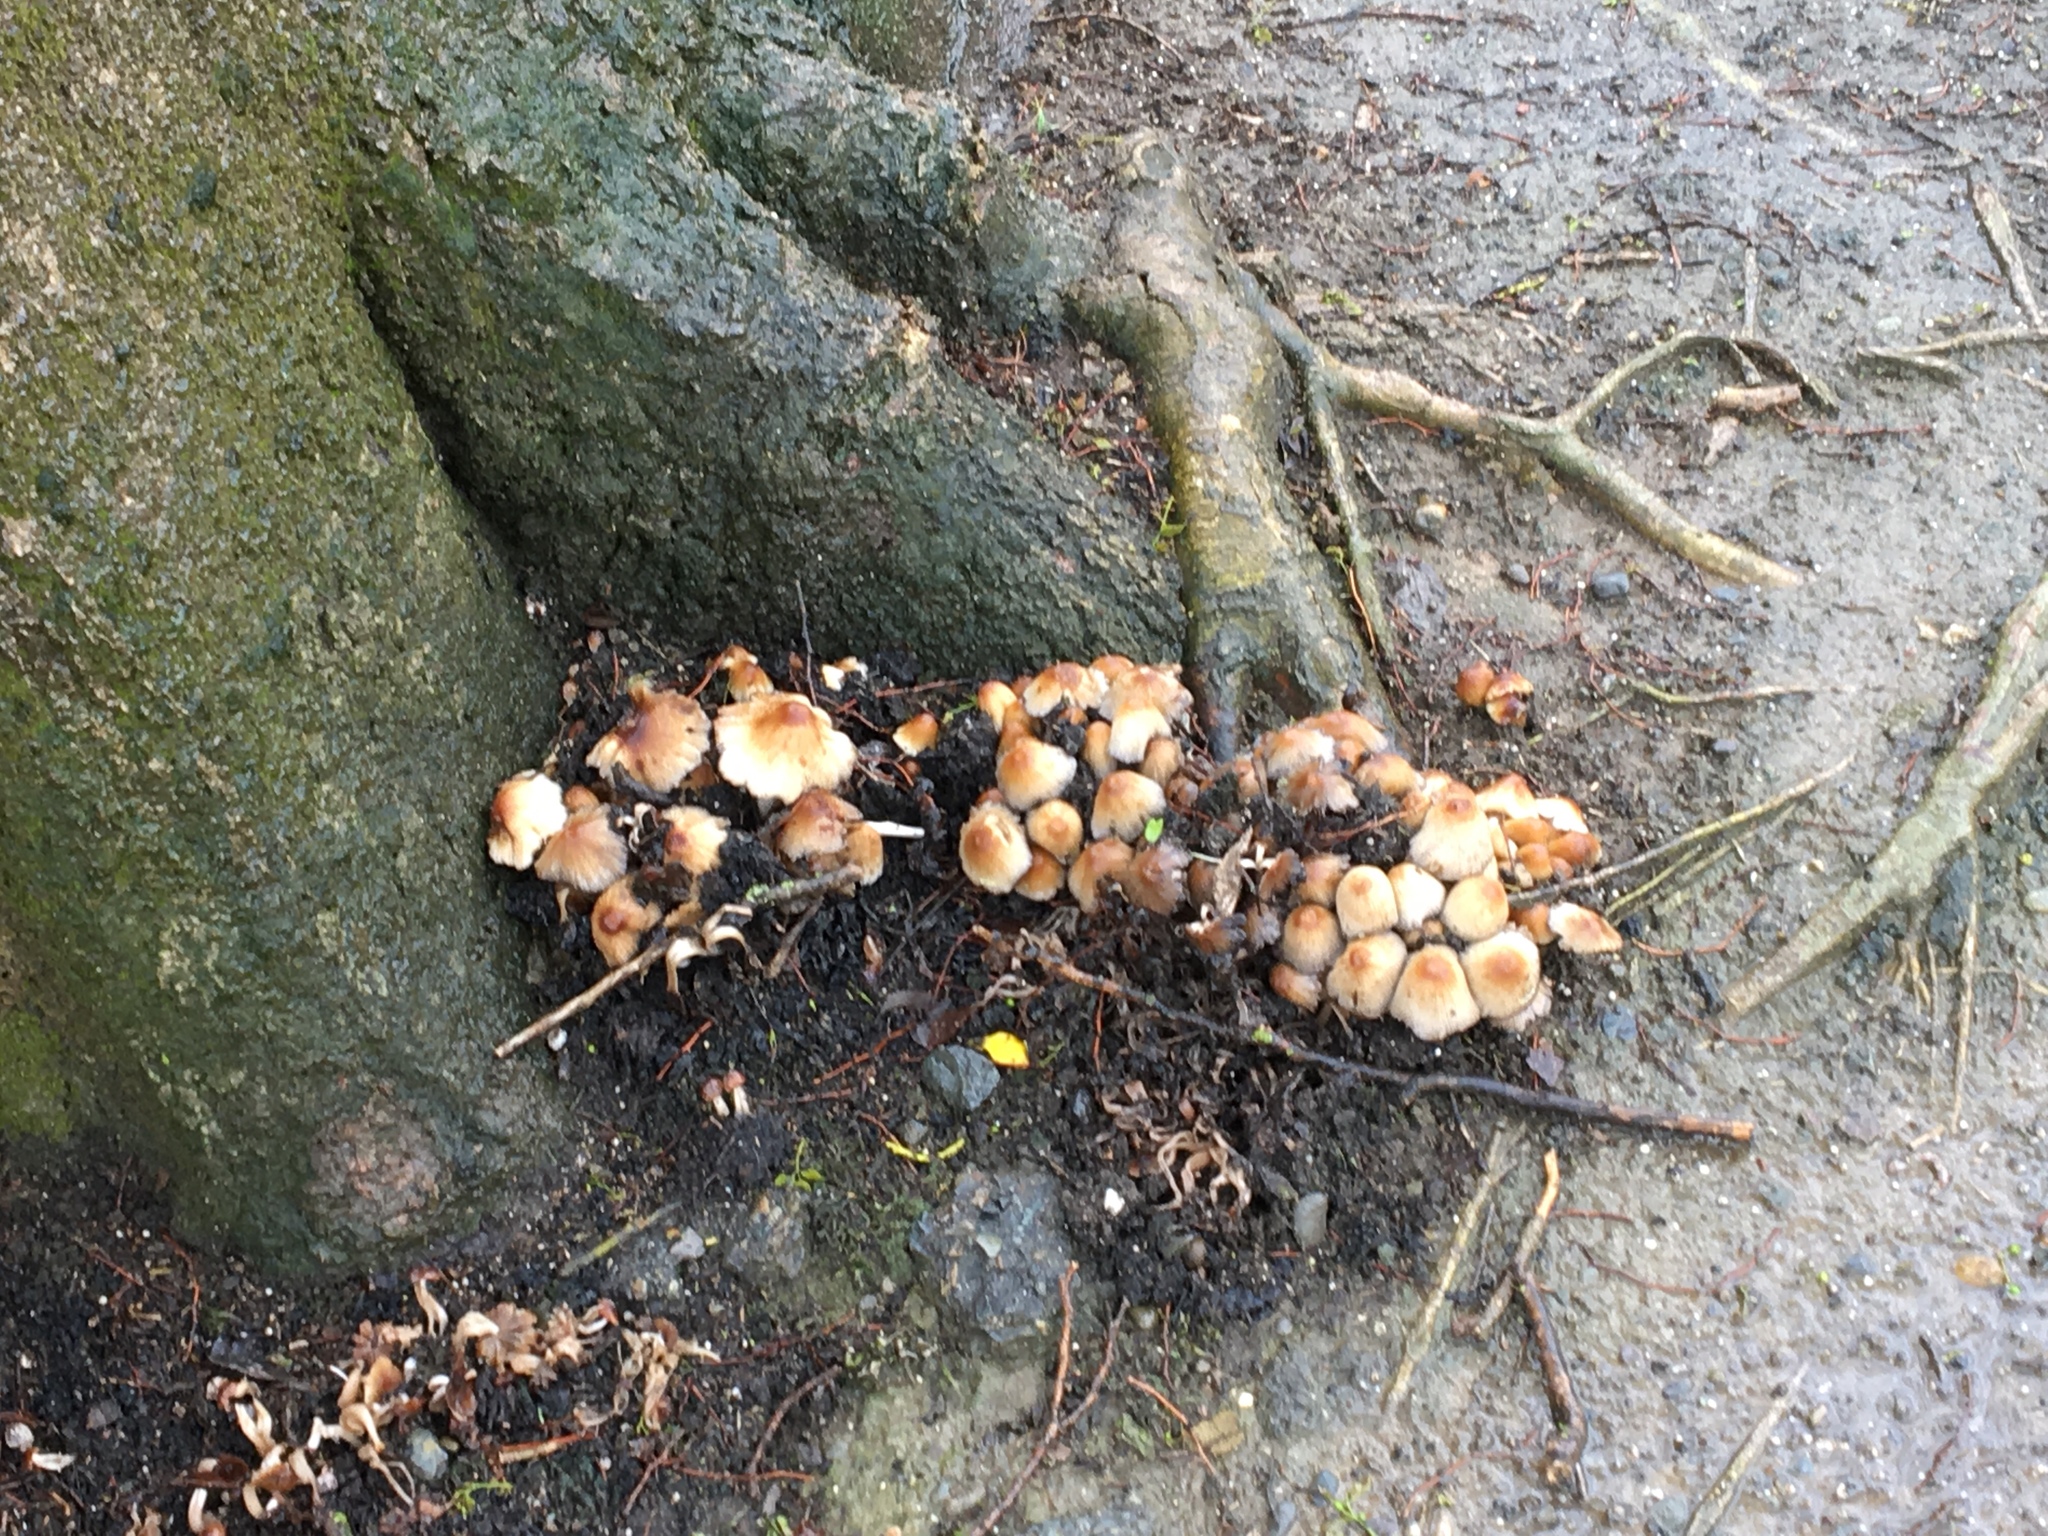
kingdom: Fungi
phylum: Basidiomycota
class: Agaricomycetes
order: Agaricales
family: Psathyrellaceae
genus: Coprinellus
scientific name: Coprinellus micaceus
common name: Glistening ink-cap
